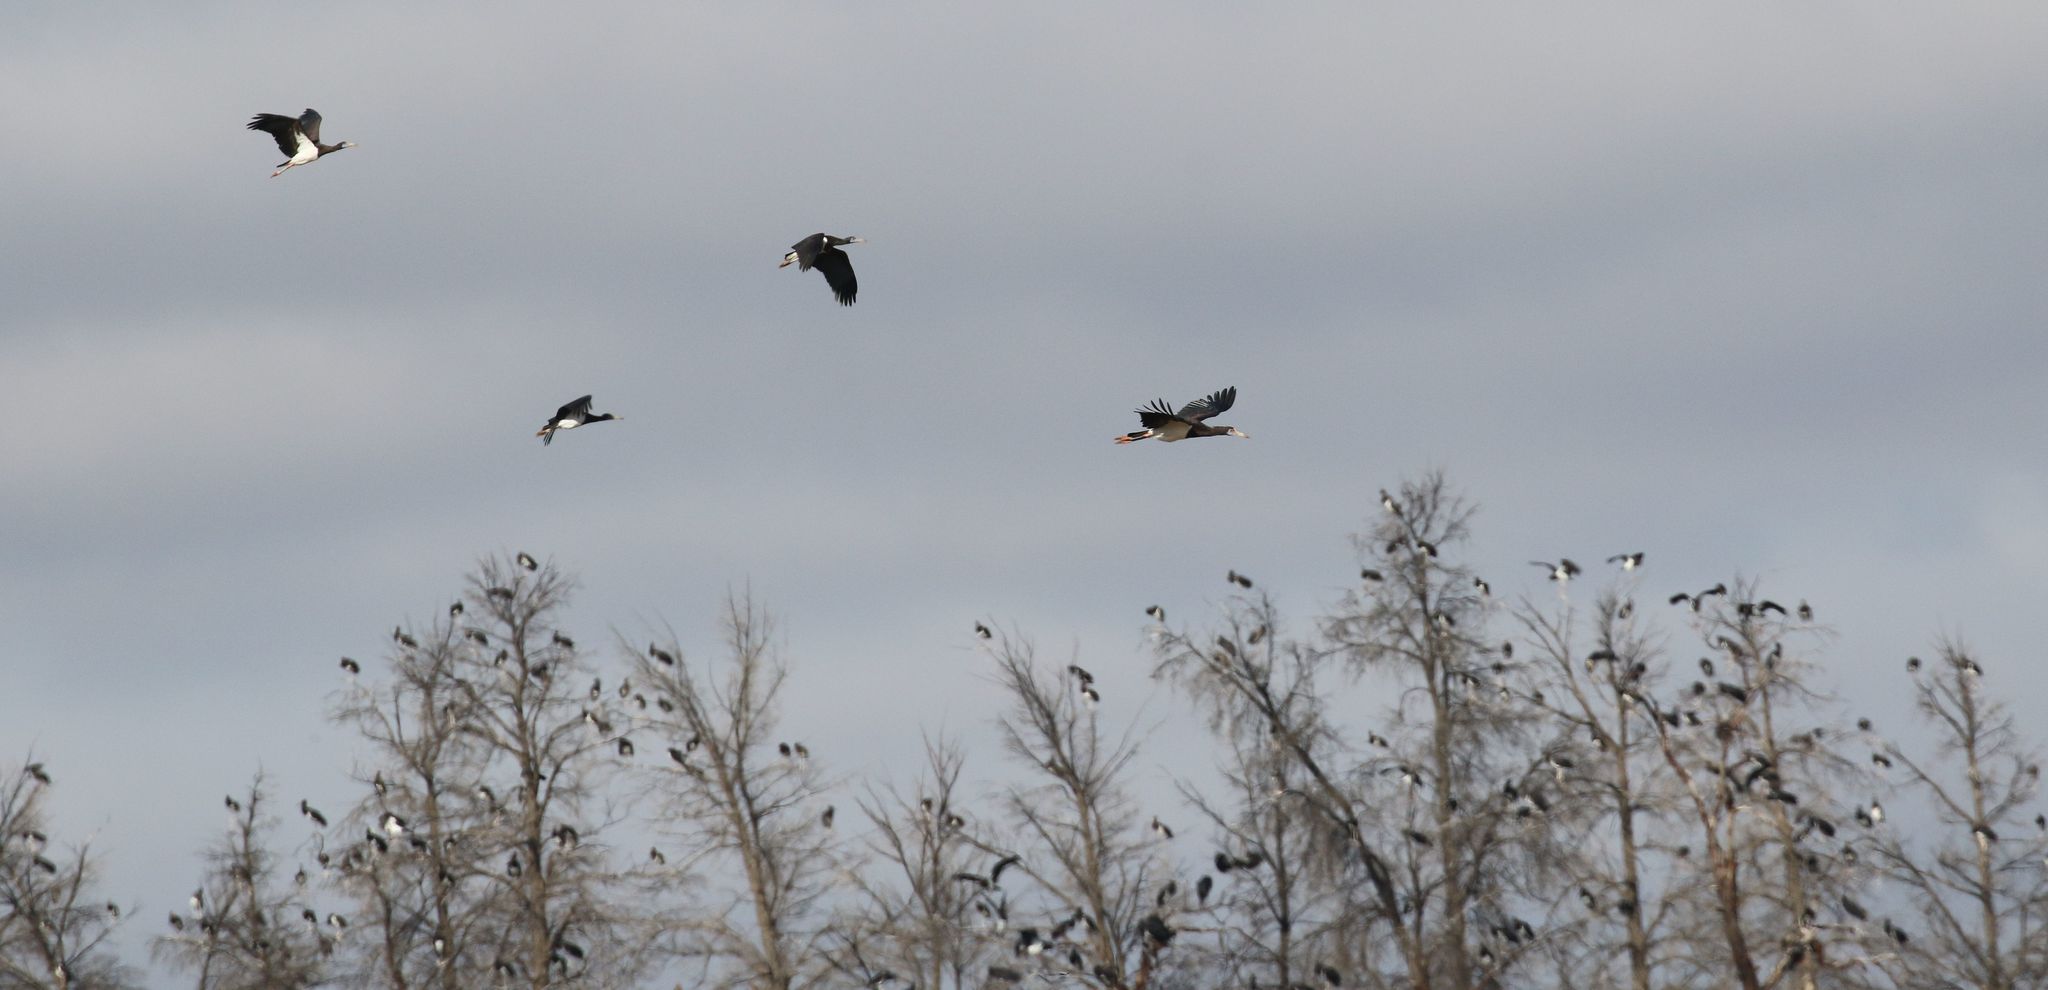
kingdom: Animalia
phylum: Chordata
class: Aves
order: Ciconiiformes
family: Ciconiidae
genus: Ciconia
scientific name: Ciconia abdimii
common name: Abdim's stork
